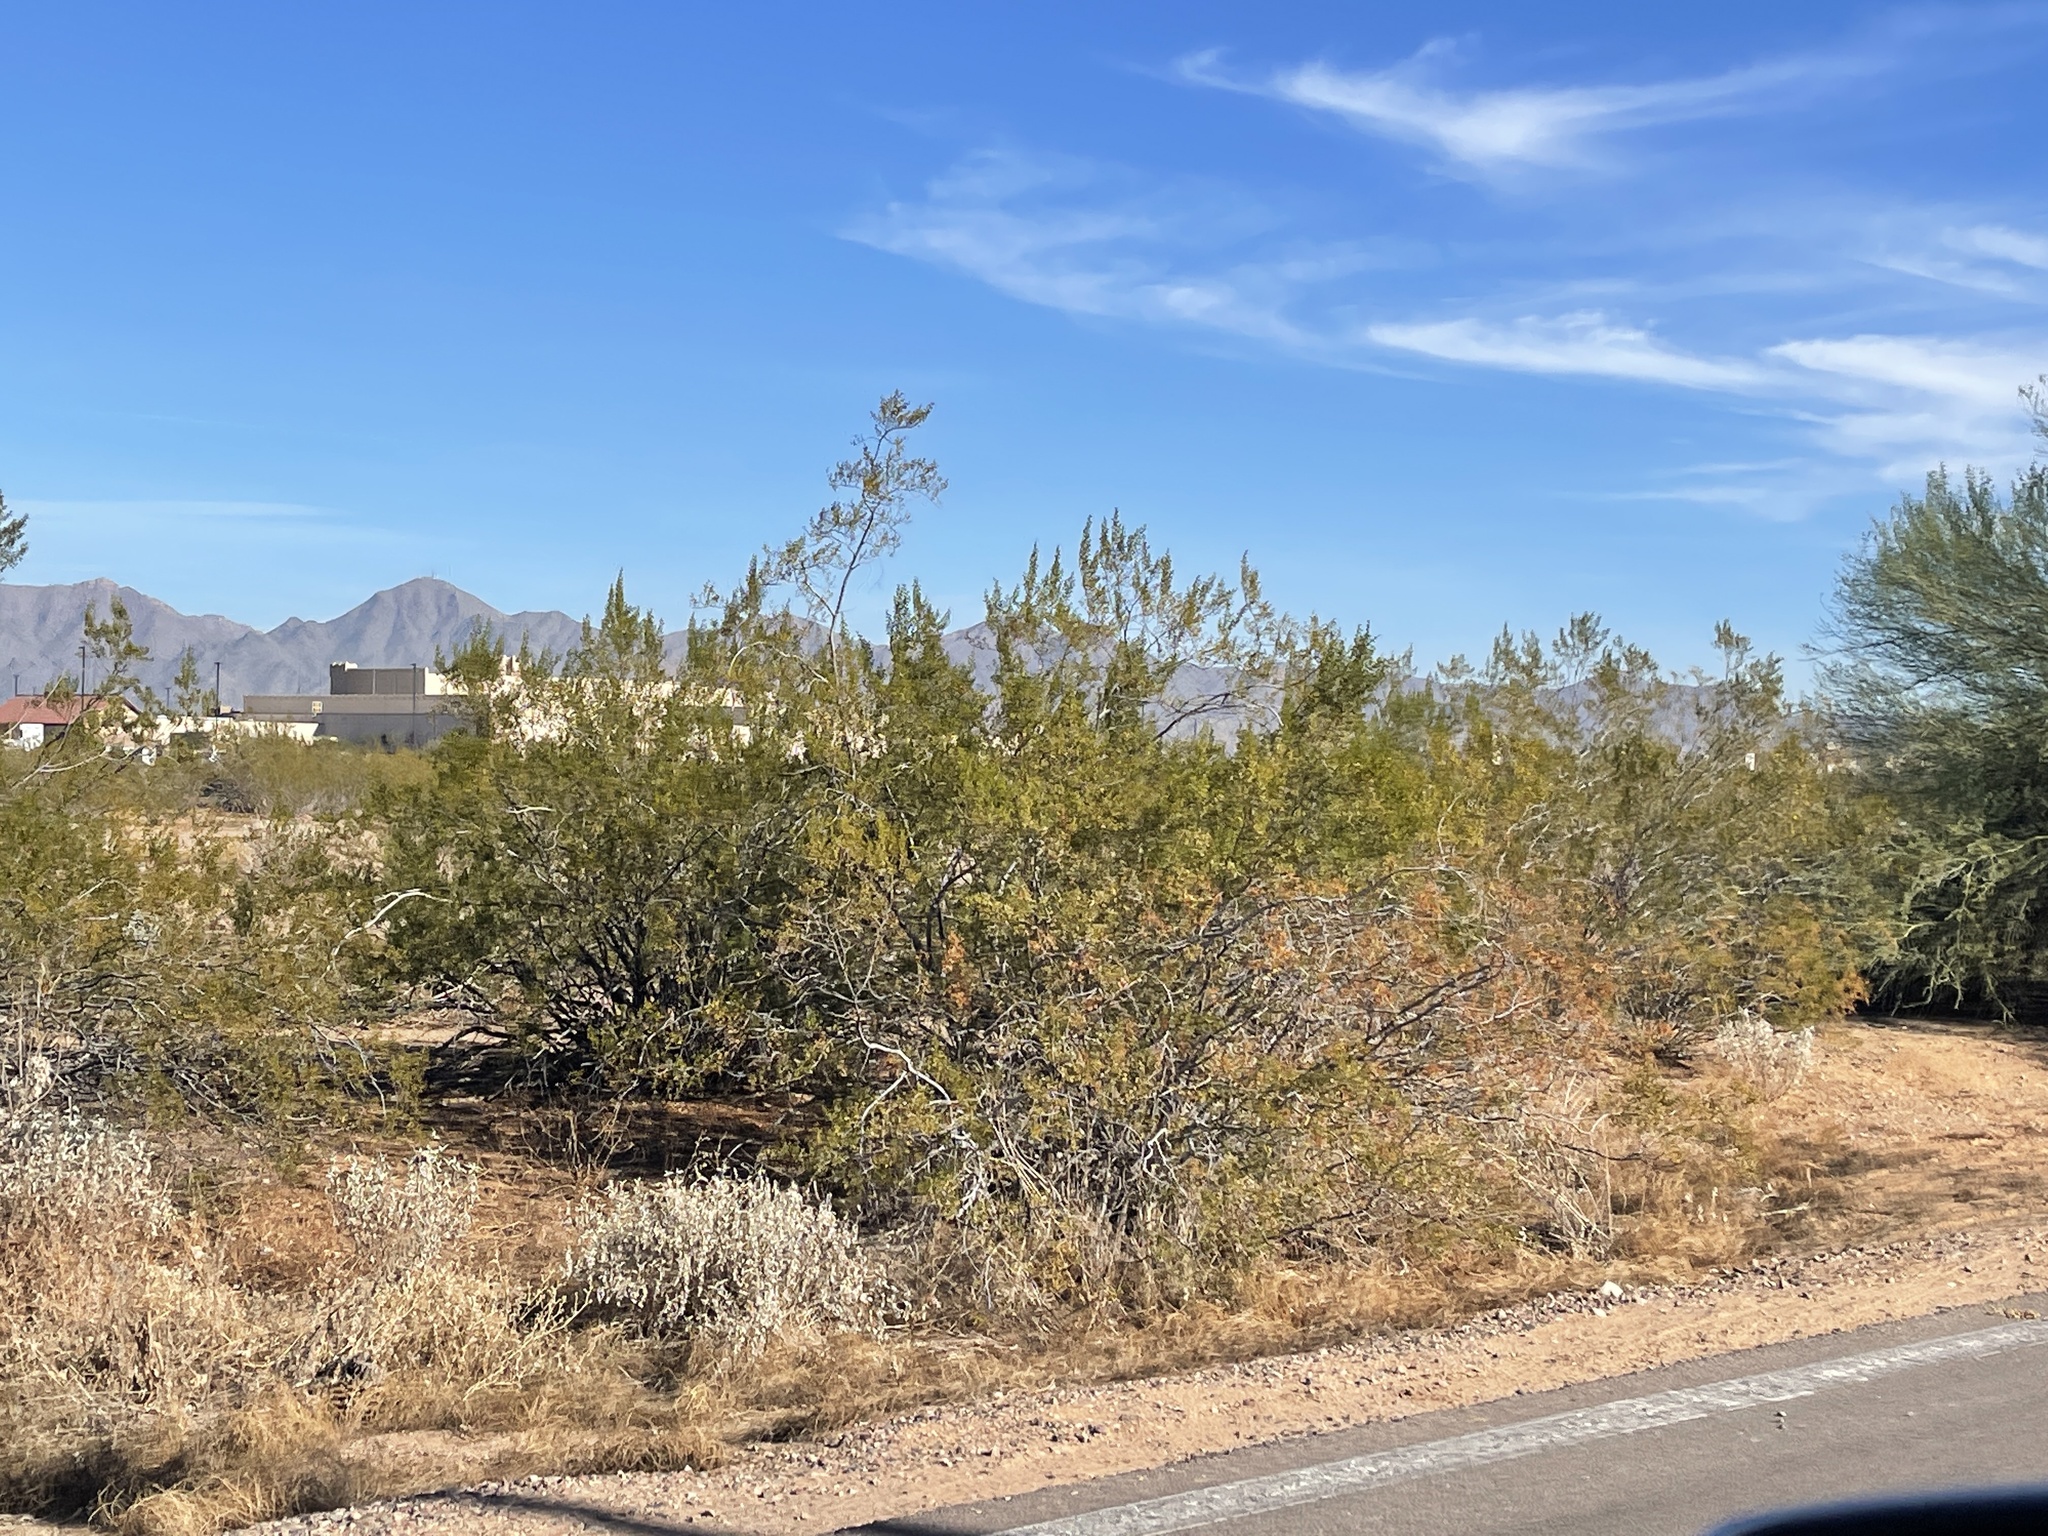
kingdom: Plantae
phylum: Tracheophyta
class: Magnoliopsida
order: Zygophyllales
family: Zygophyllaceae
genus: Larrea
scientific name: Larrea tridentata
